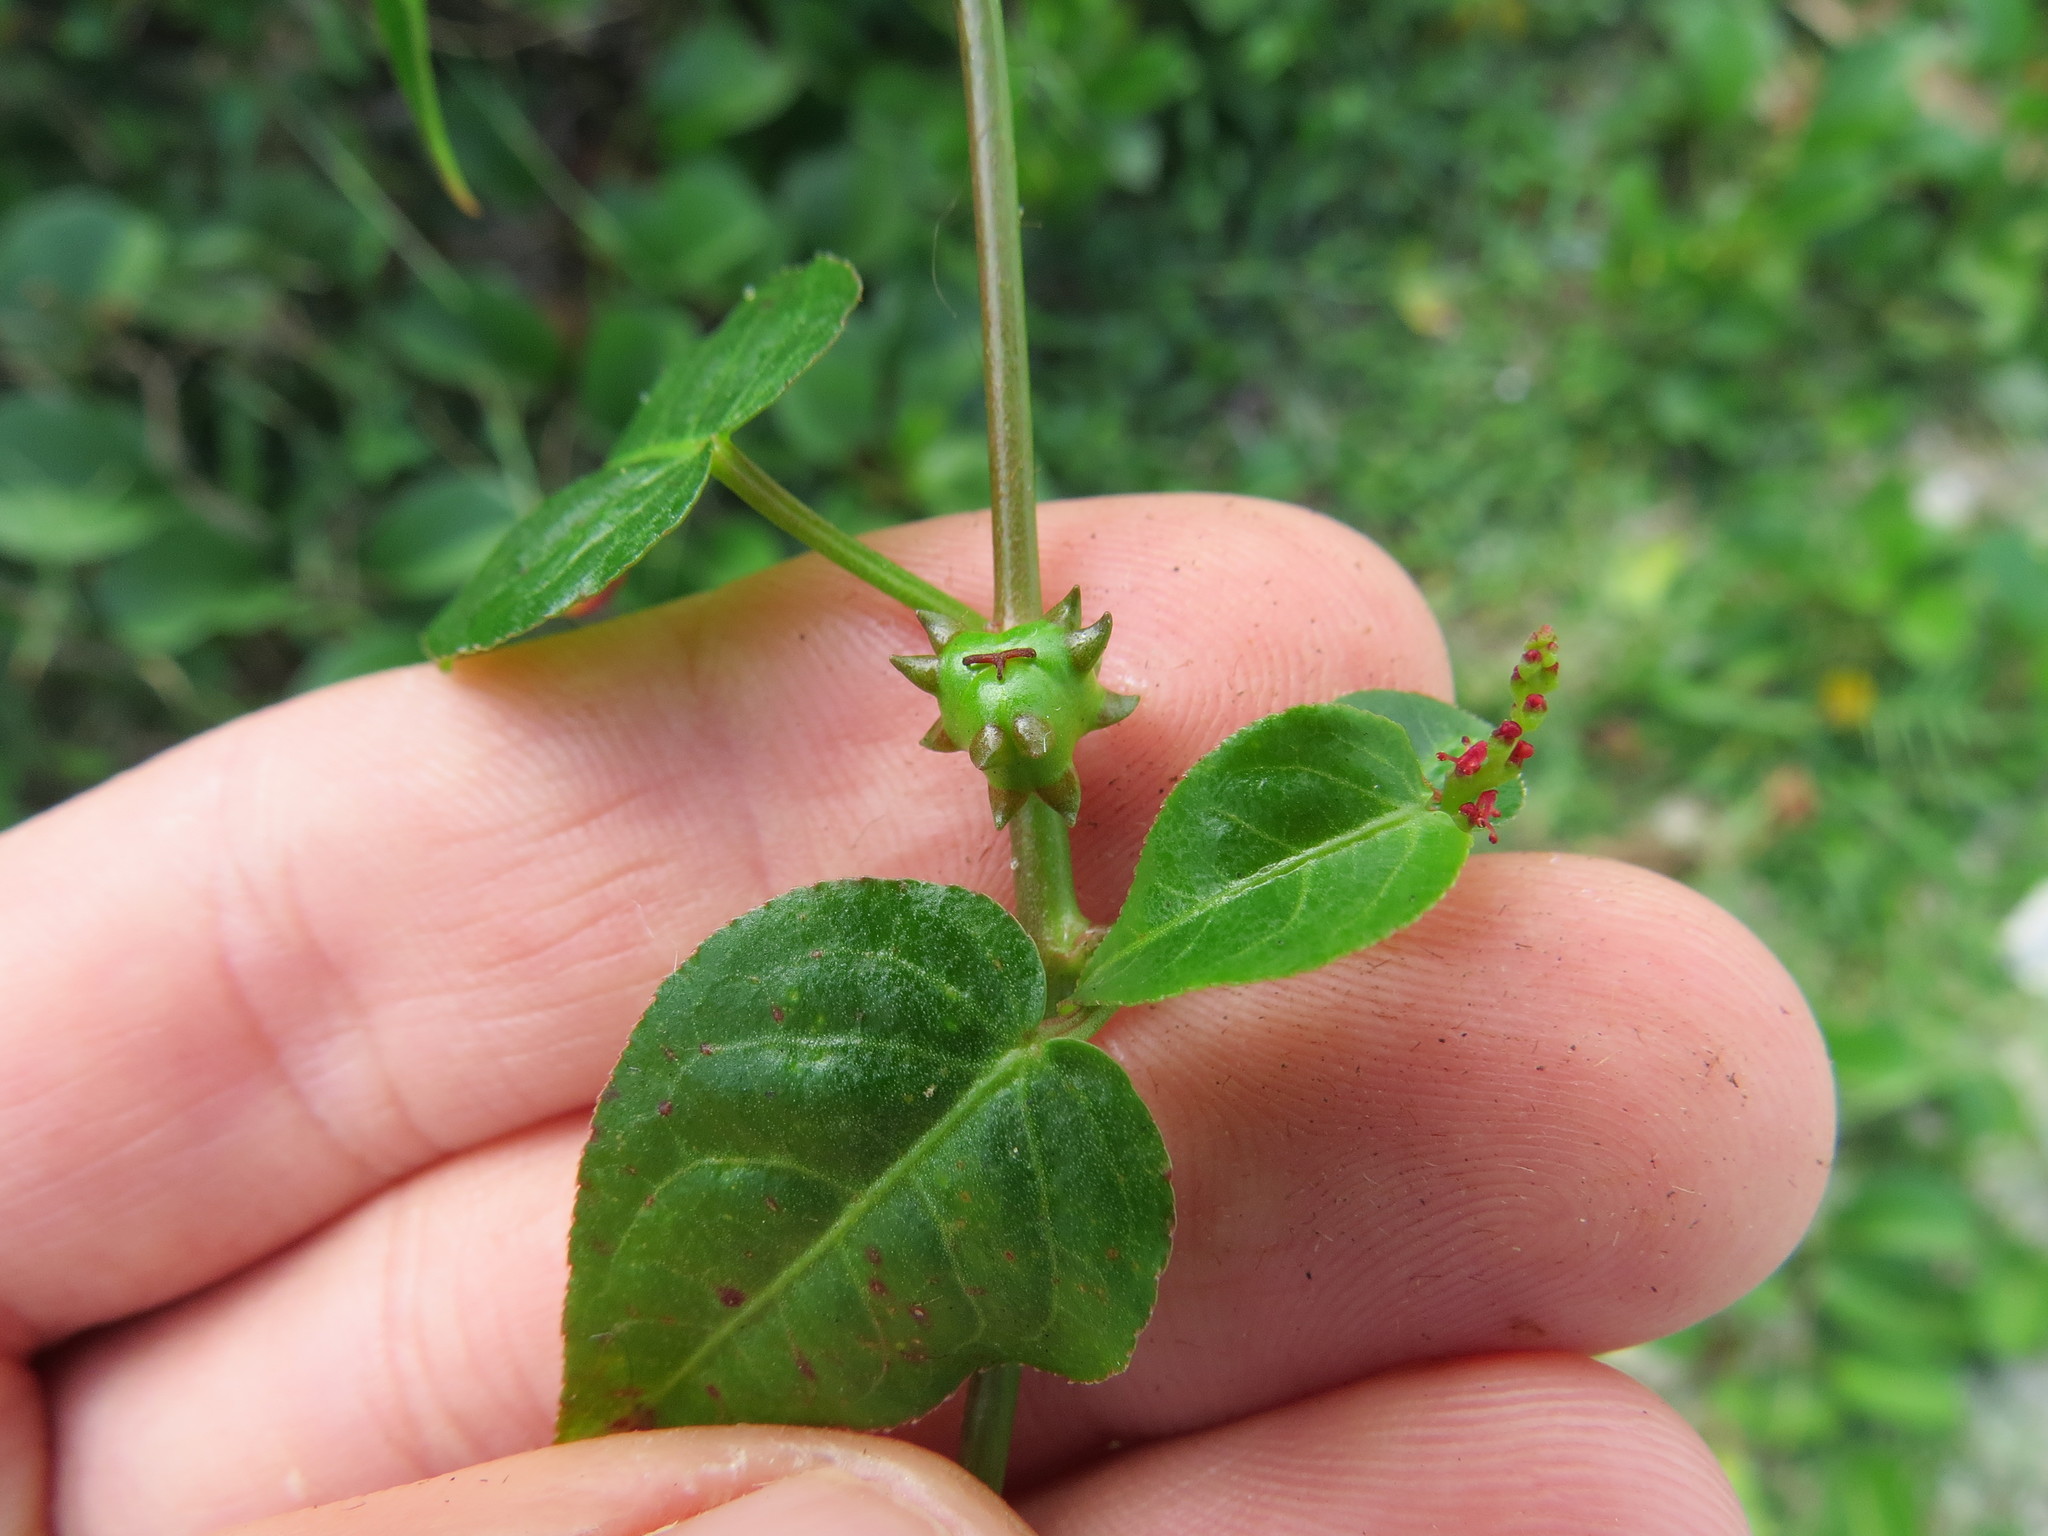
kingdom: Plantae
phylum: Tracheophyta
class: Magnoliopsida
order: Malpighiales
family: Euphorbiaceae
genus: Microstachys
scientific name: Microstachys corniculata
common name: Hato tejas
